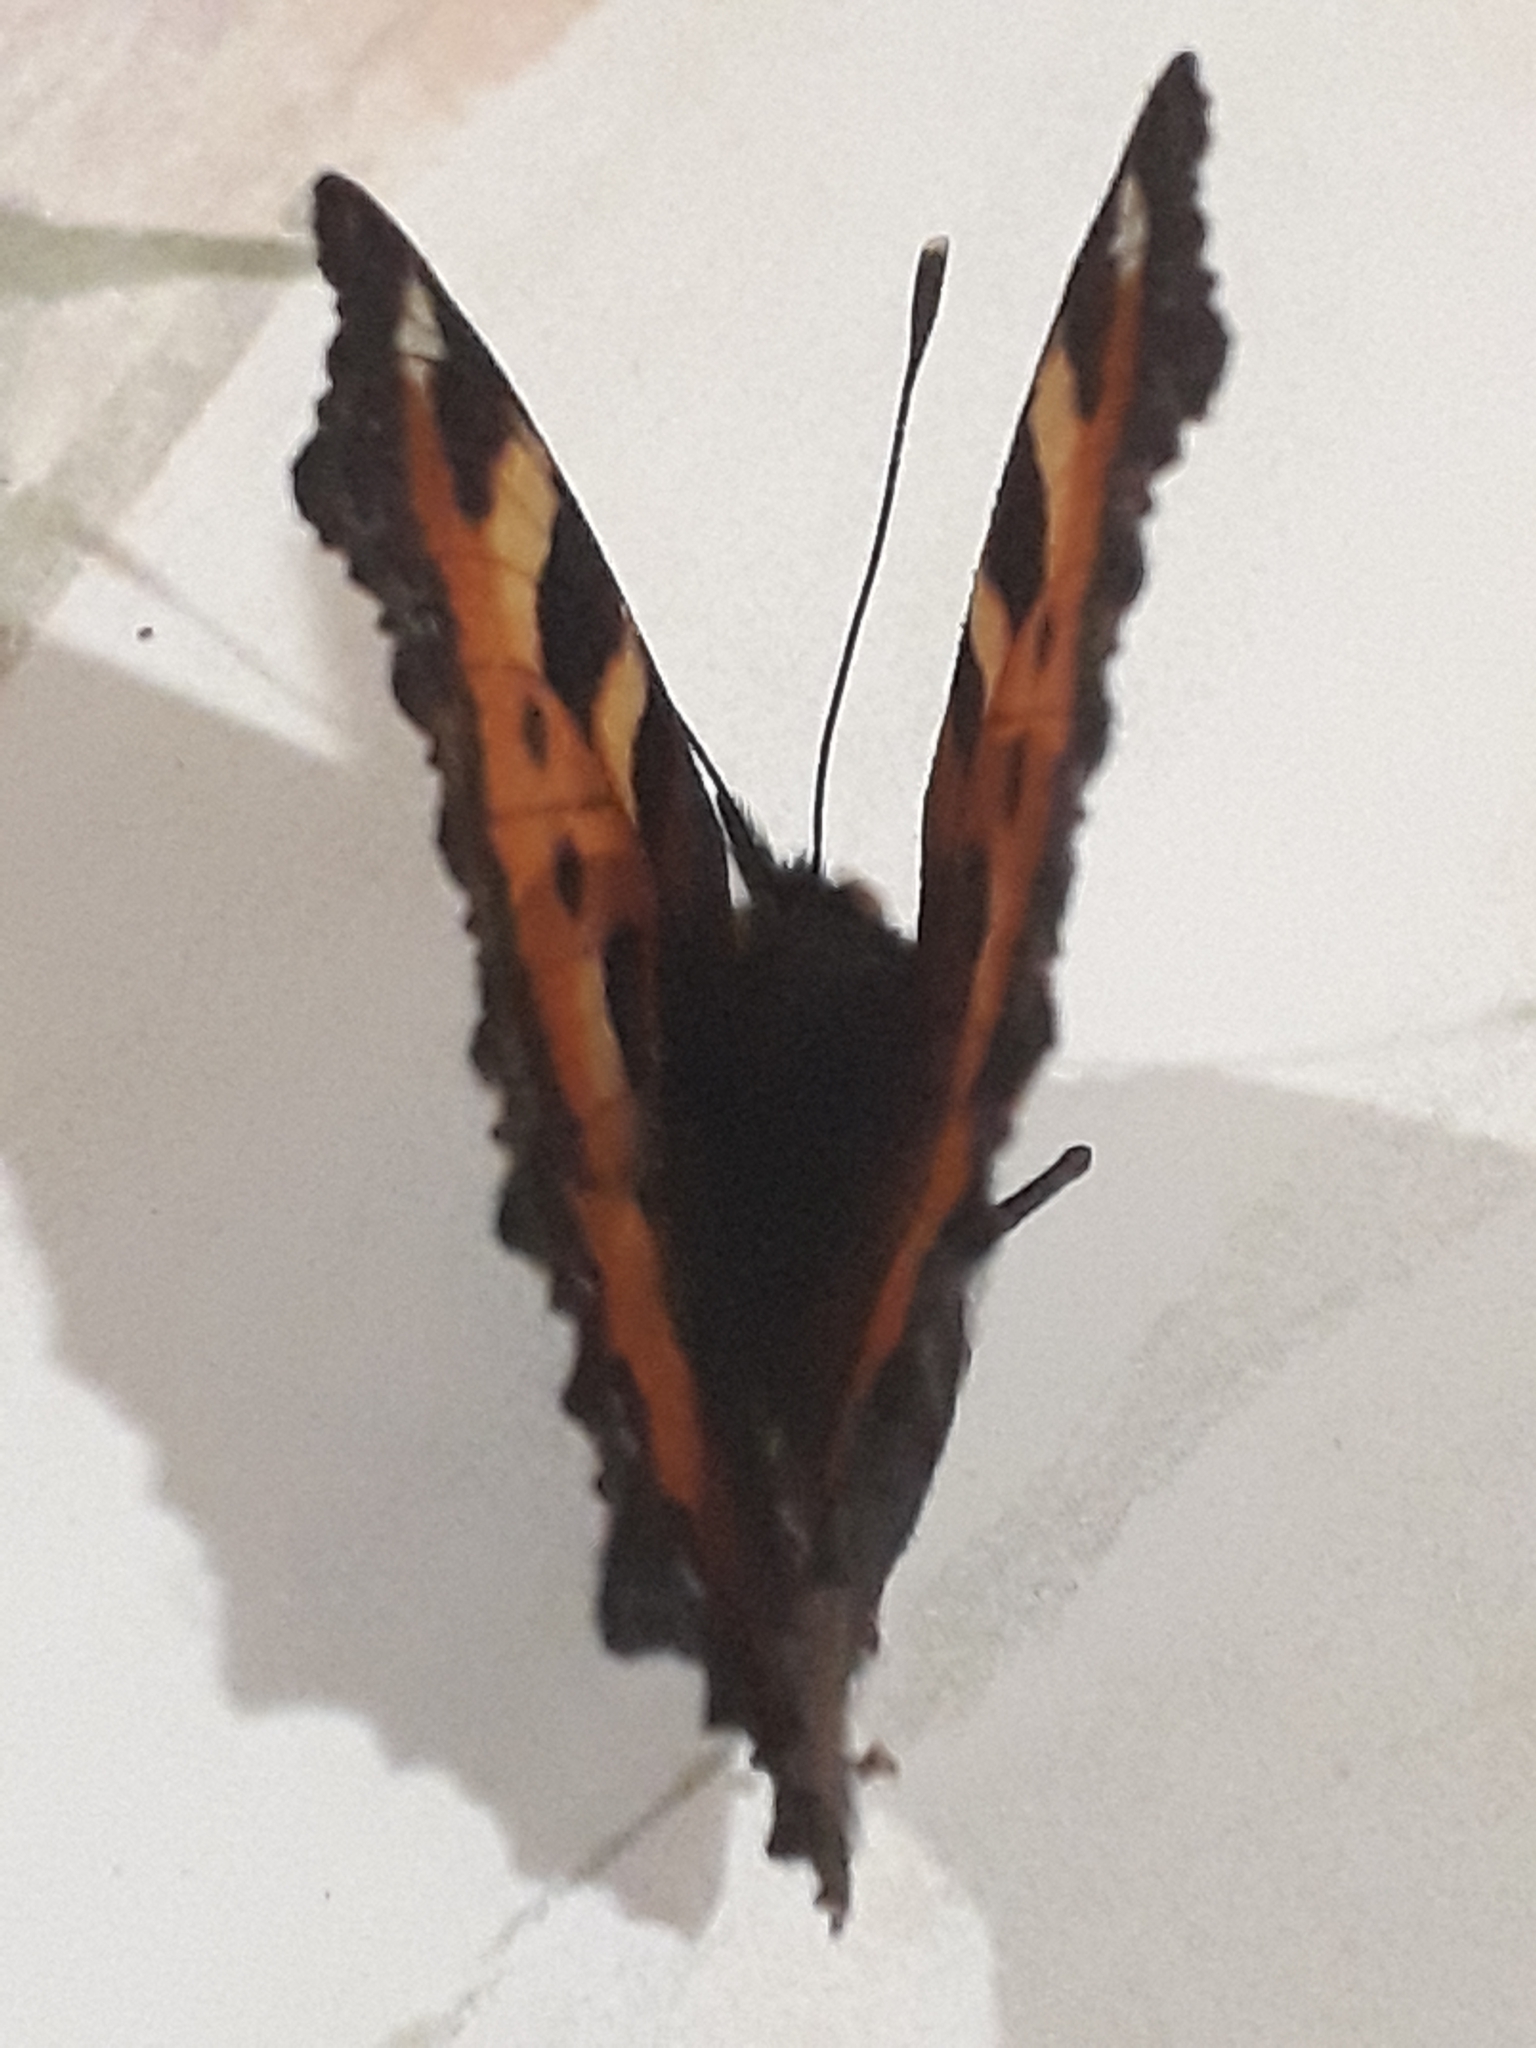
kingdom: Animalia
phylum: Arthropoda
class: Insecta
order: Lepidoptera
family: Nymphalidae
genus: Aglais
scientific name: Aglais urticae
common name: Small tortoiseshell
